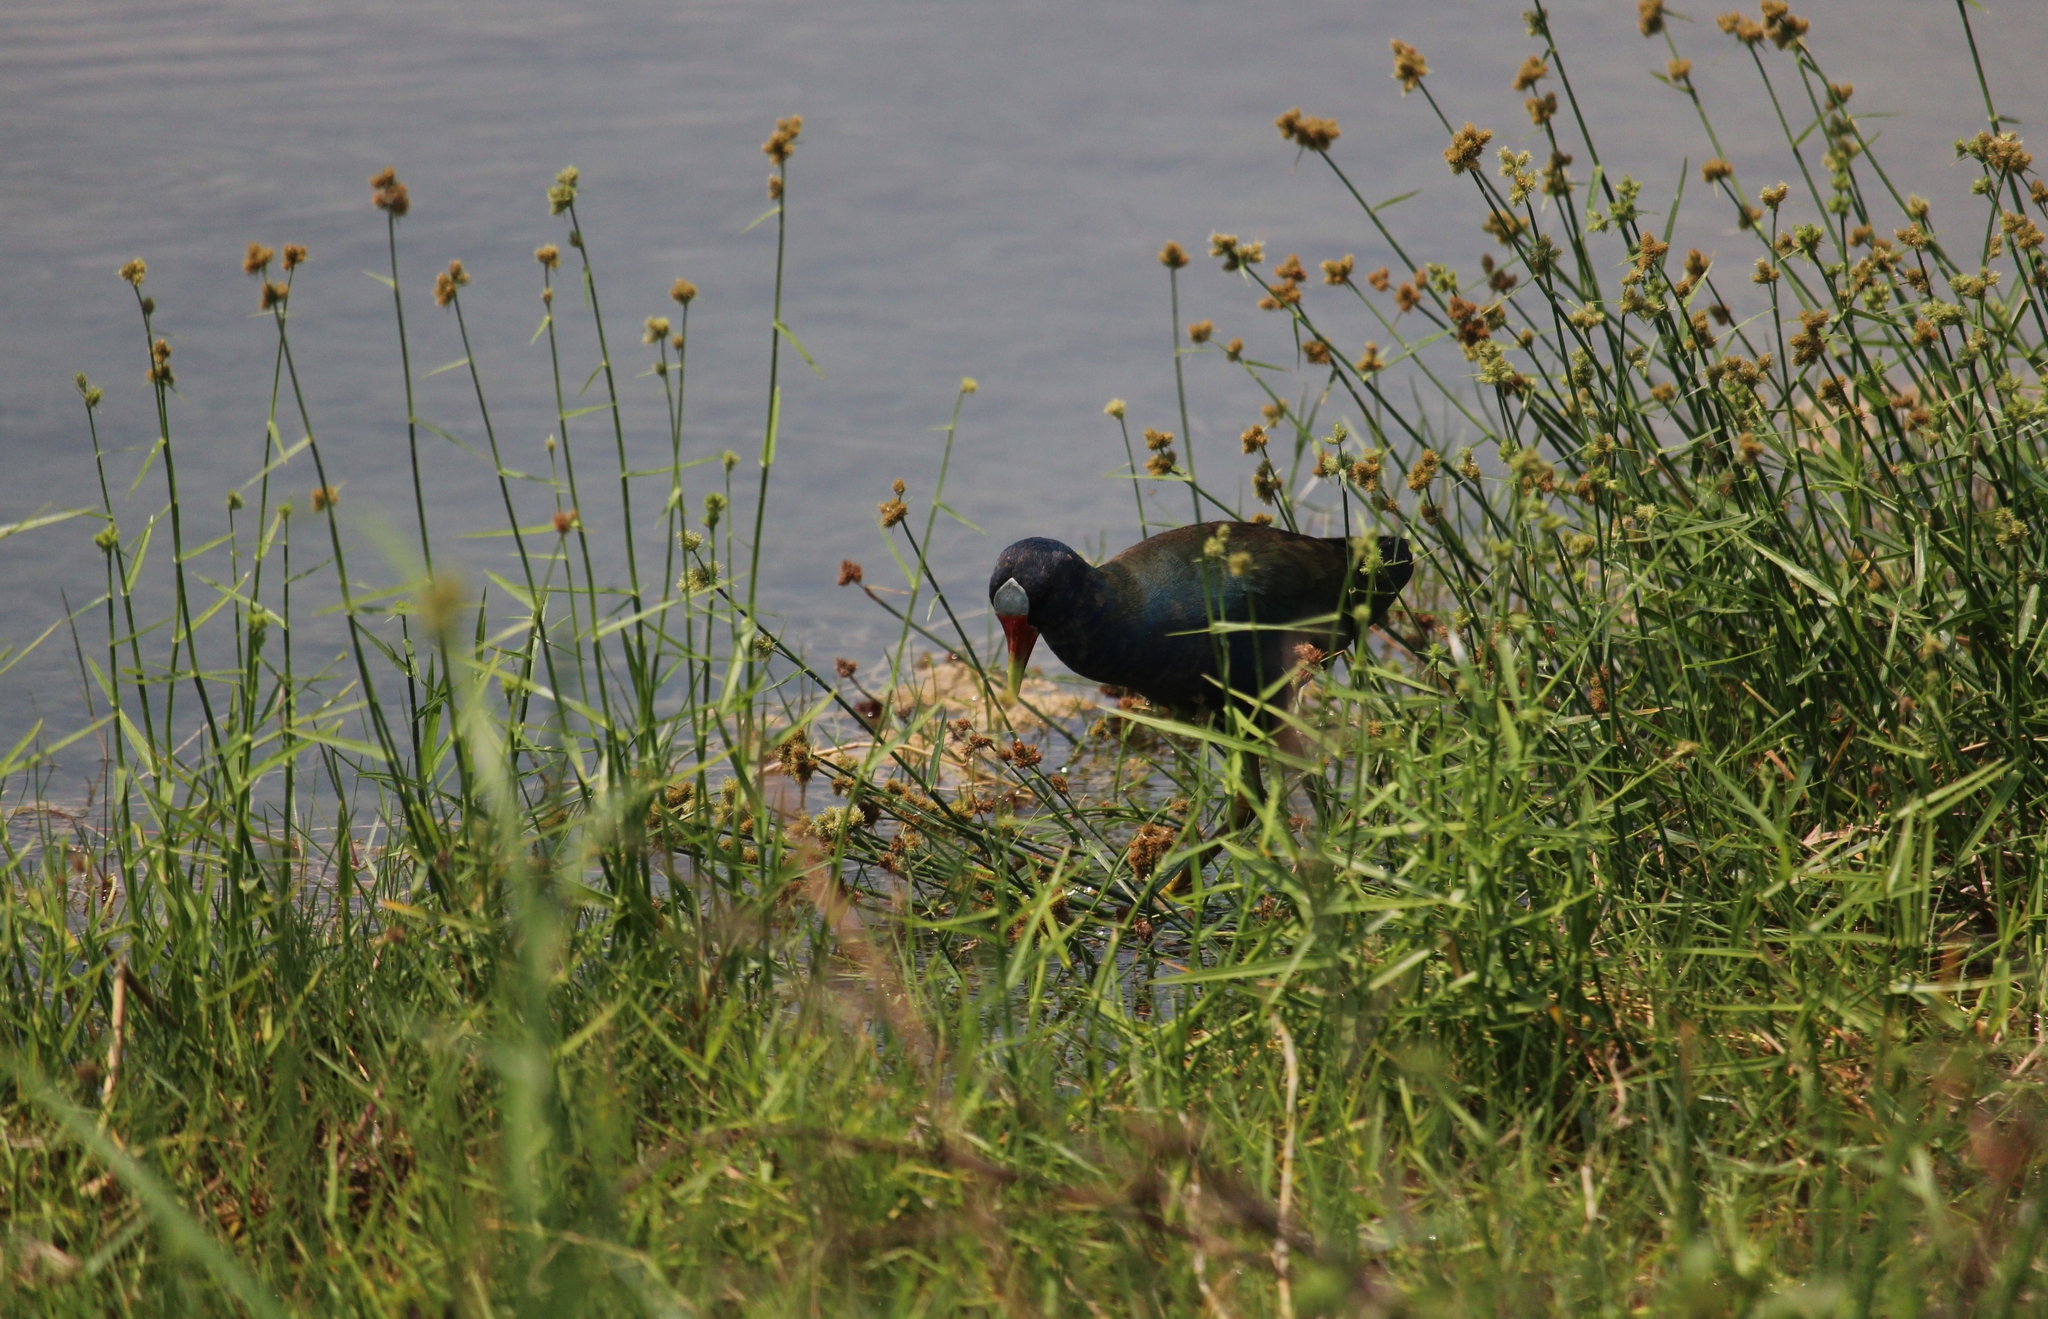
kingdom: Animalia
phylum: Chordata
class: Aves
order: Gruiformes
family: Rallidae
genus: Porphyrio
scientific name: Porphyrio martinica
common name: Purple gallinule
